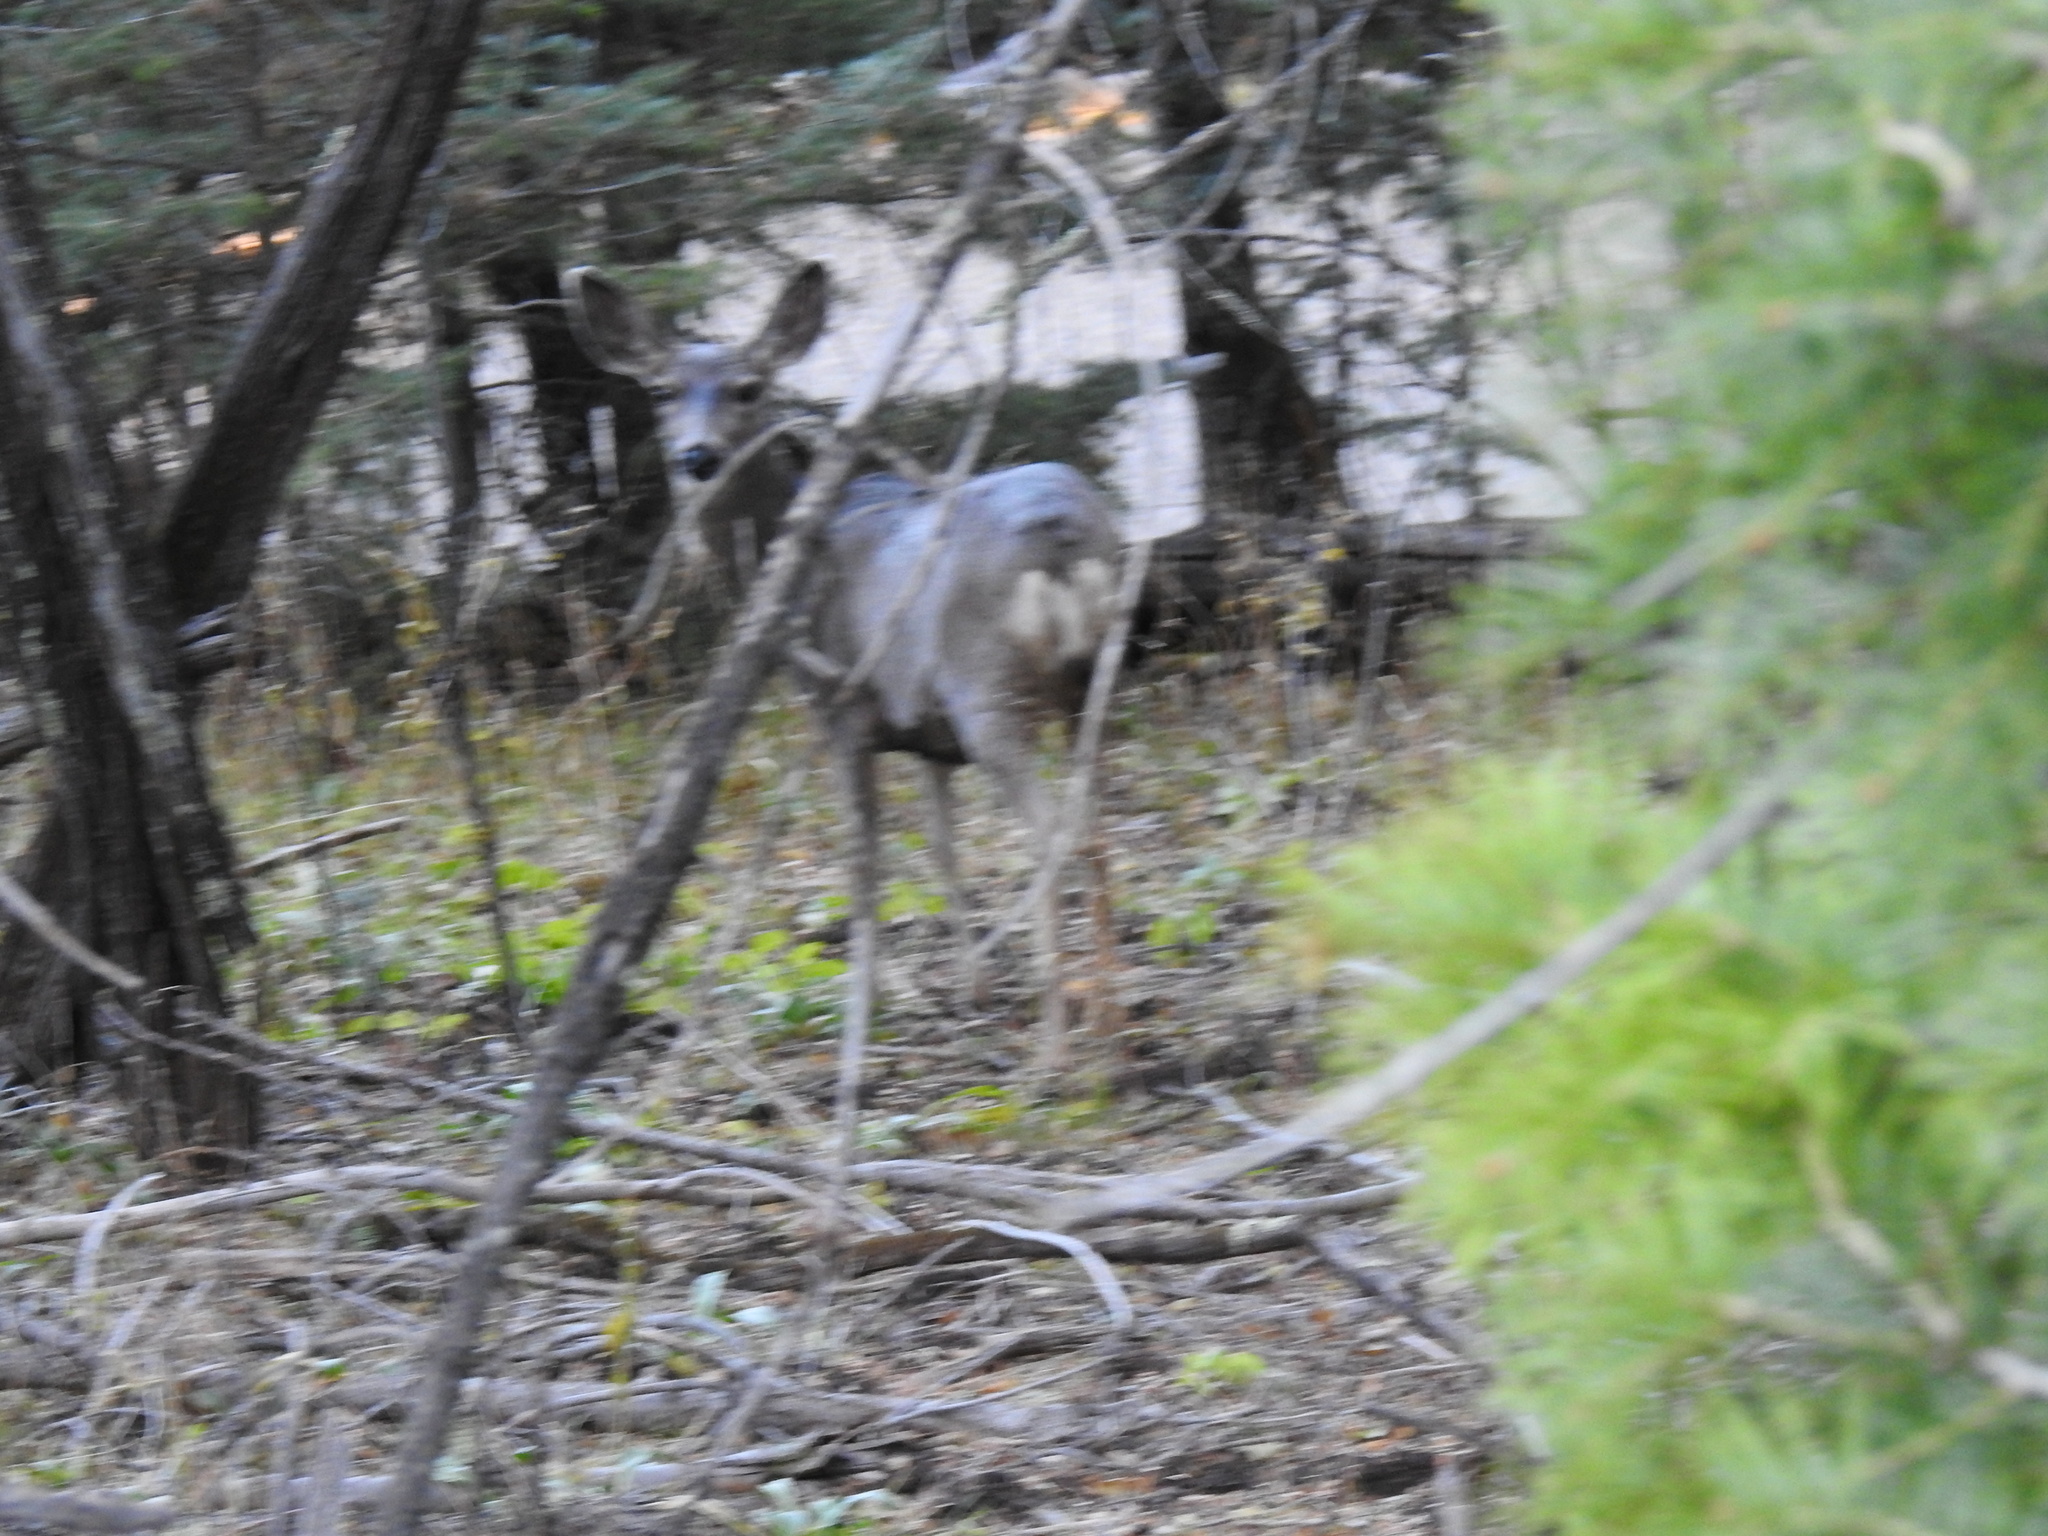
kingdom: Animalia
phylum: Chordata
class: Mammalia
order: Artiodactyla
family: Cervidae
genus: Odocoileus
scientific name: Odocoileus hemionus
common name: Mule deer
